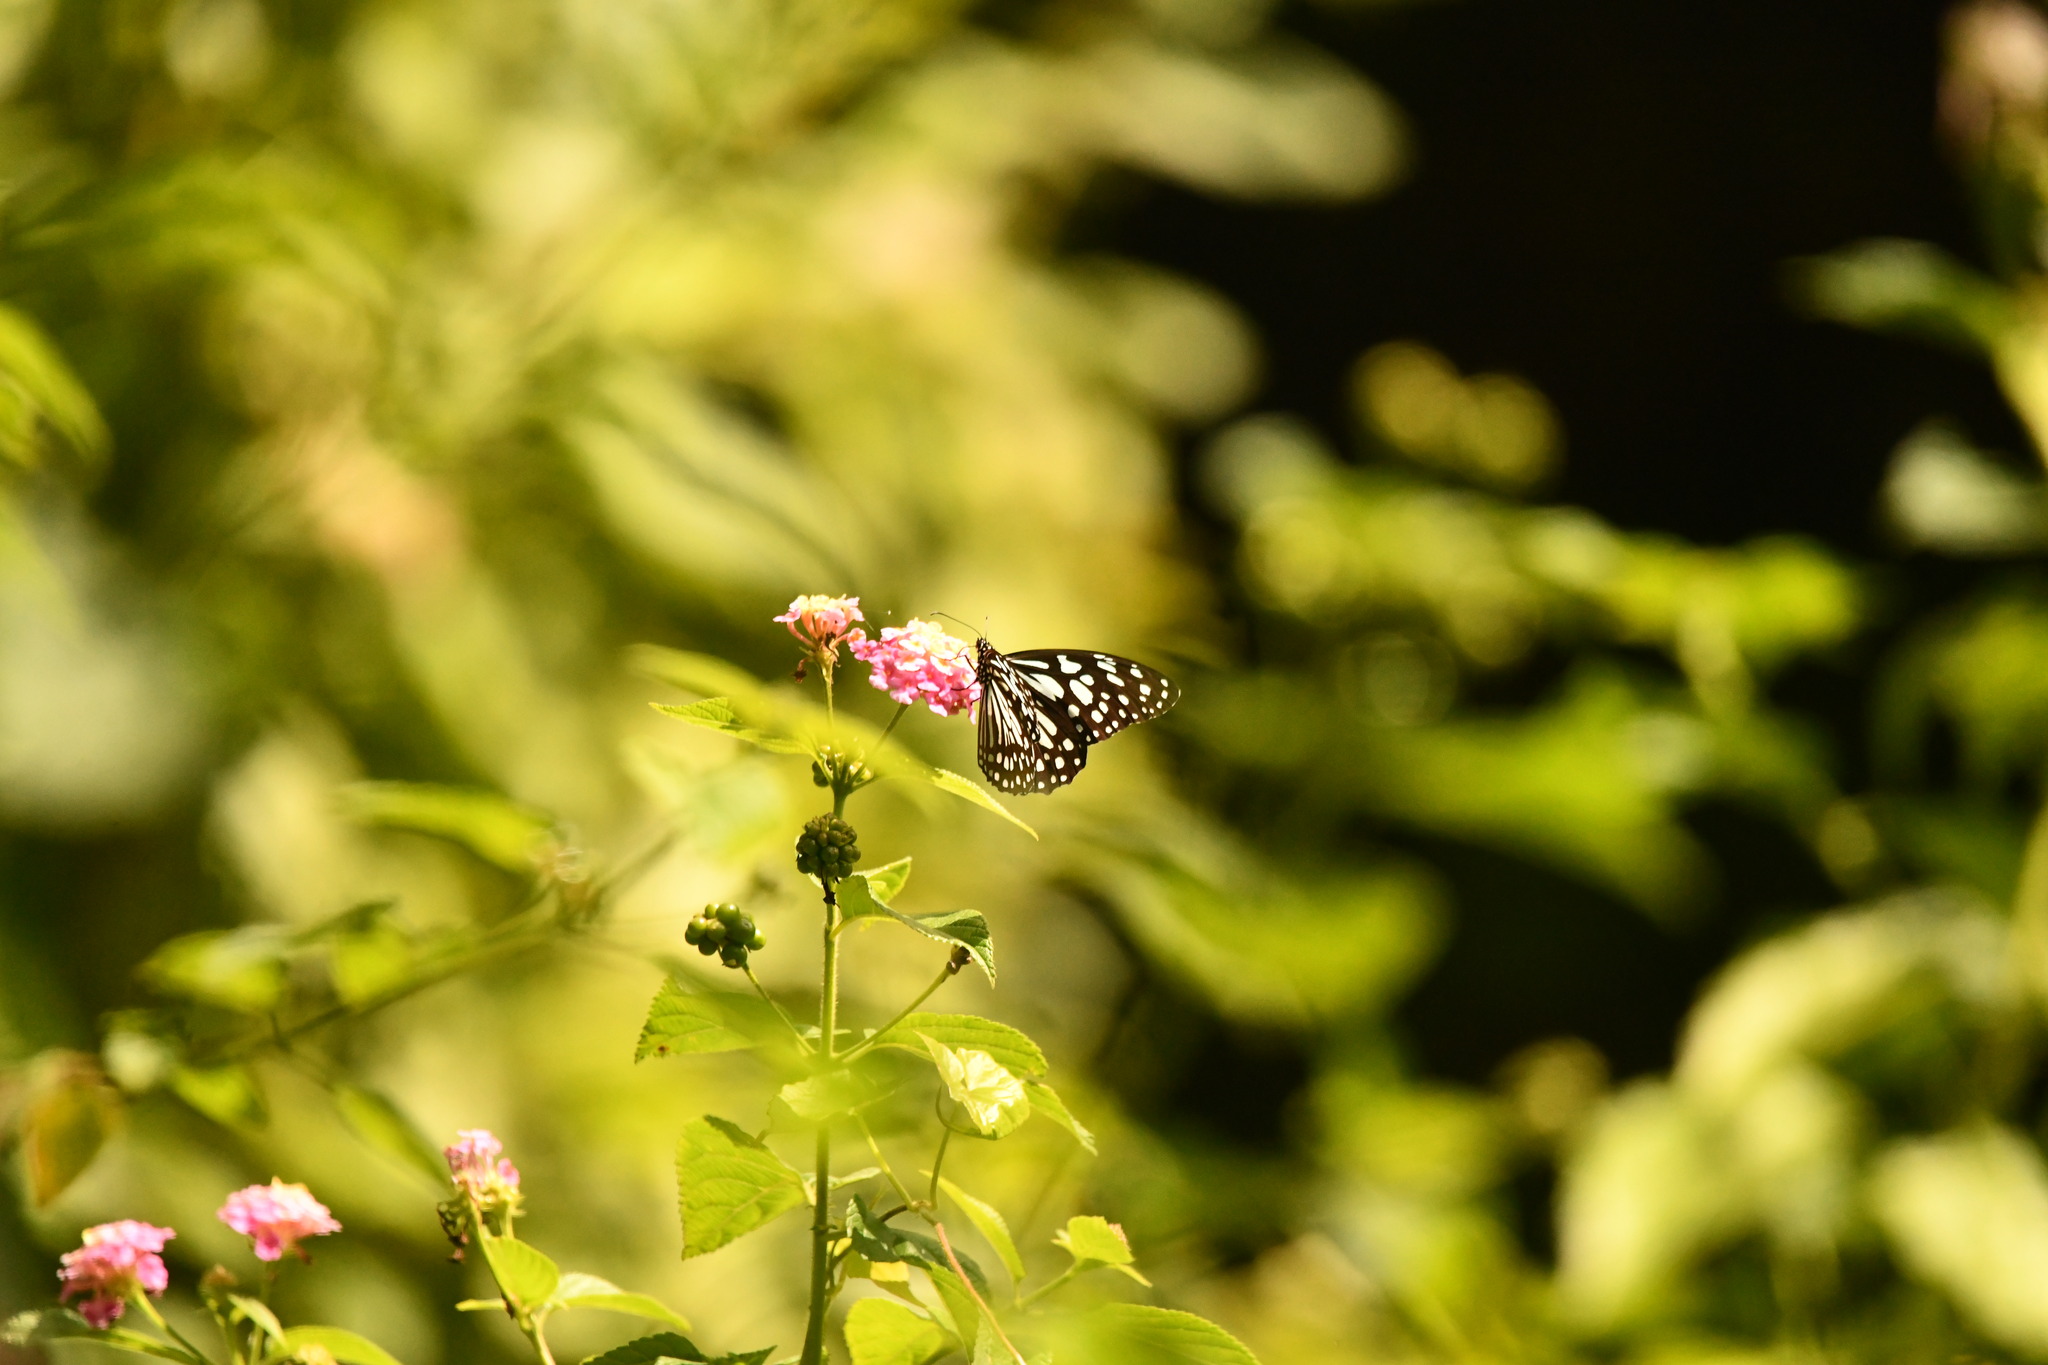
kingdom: Animalia
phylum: Arthropoda
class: Insecta
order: Lepidoptera
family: Nymphalidae
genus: Tirumala
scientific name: Tirumala limniace
